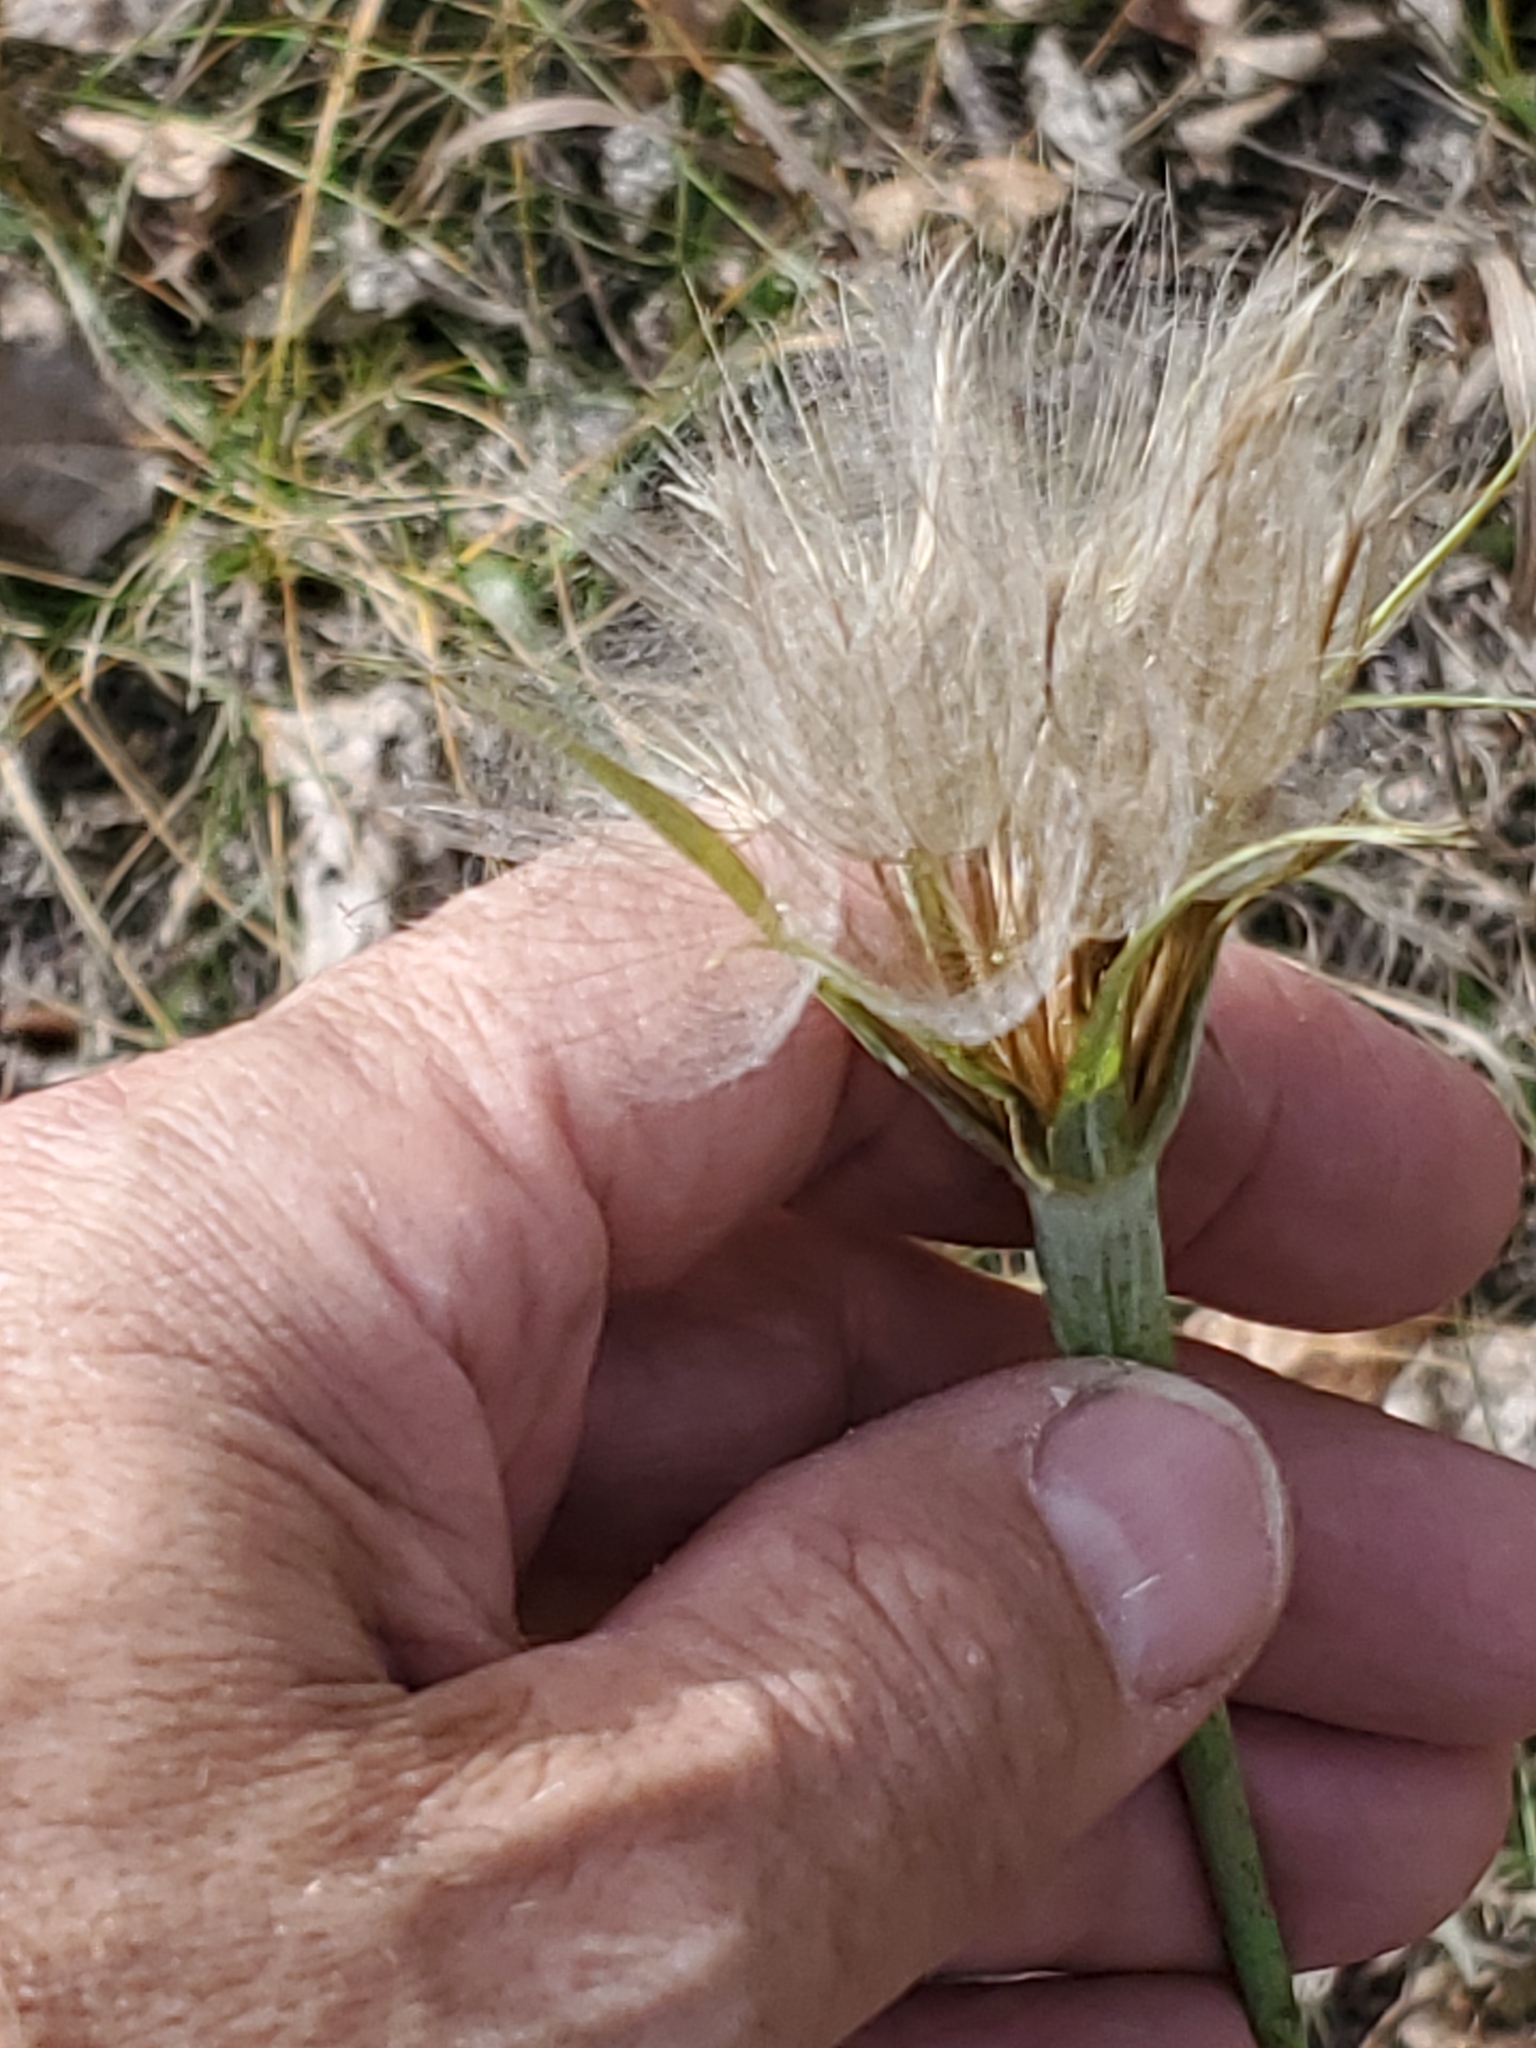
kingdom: Plantae
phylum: Tracheophyta
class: Magnoliopsida
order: Asterales
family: Asteraceae
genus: Tragopogon
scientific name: Tragopogon dubius
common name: Yellow salsify
